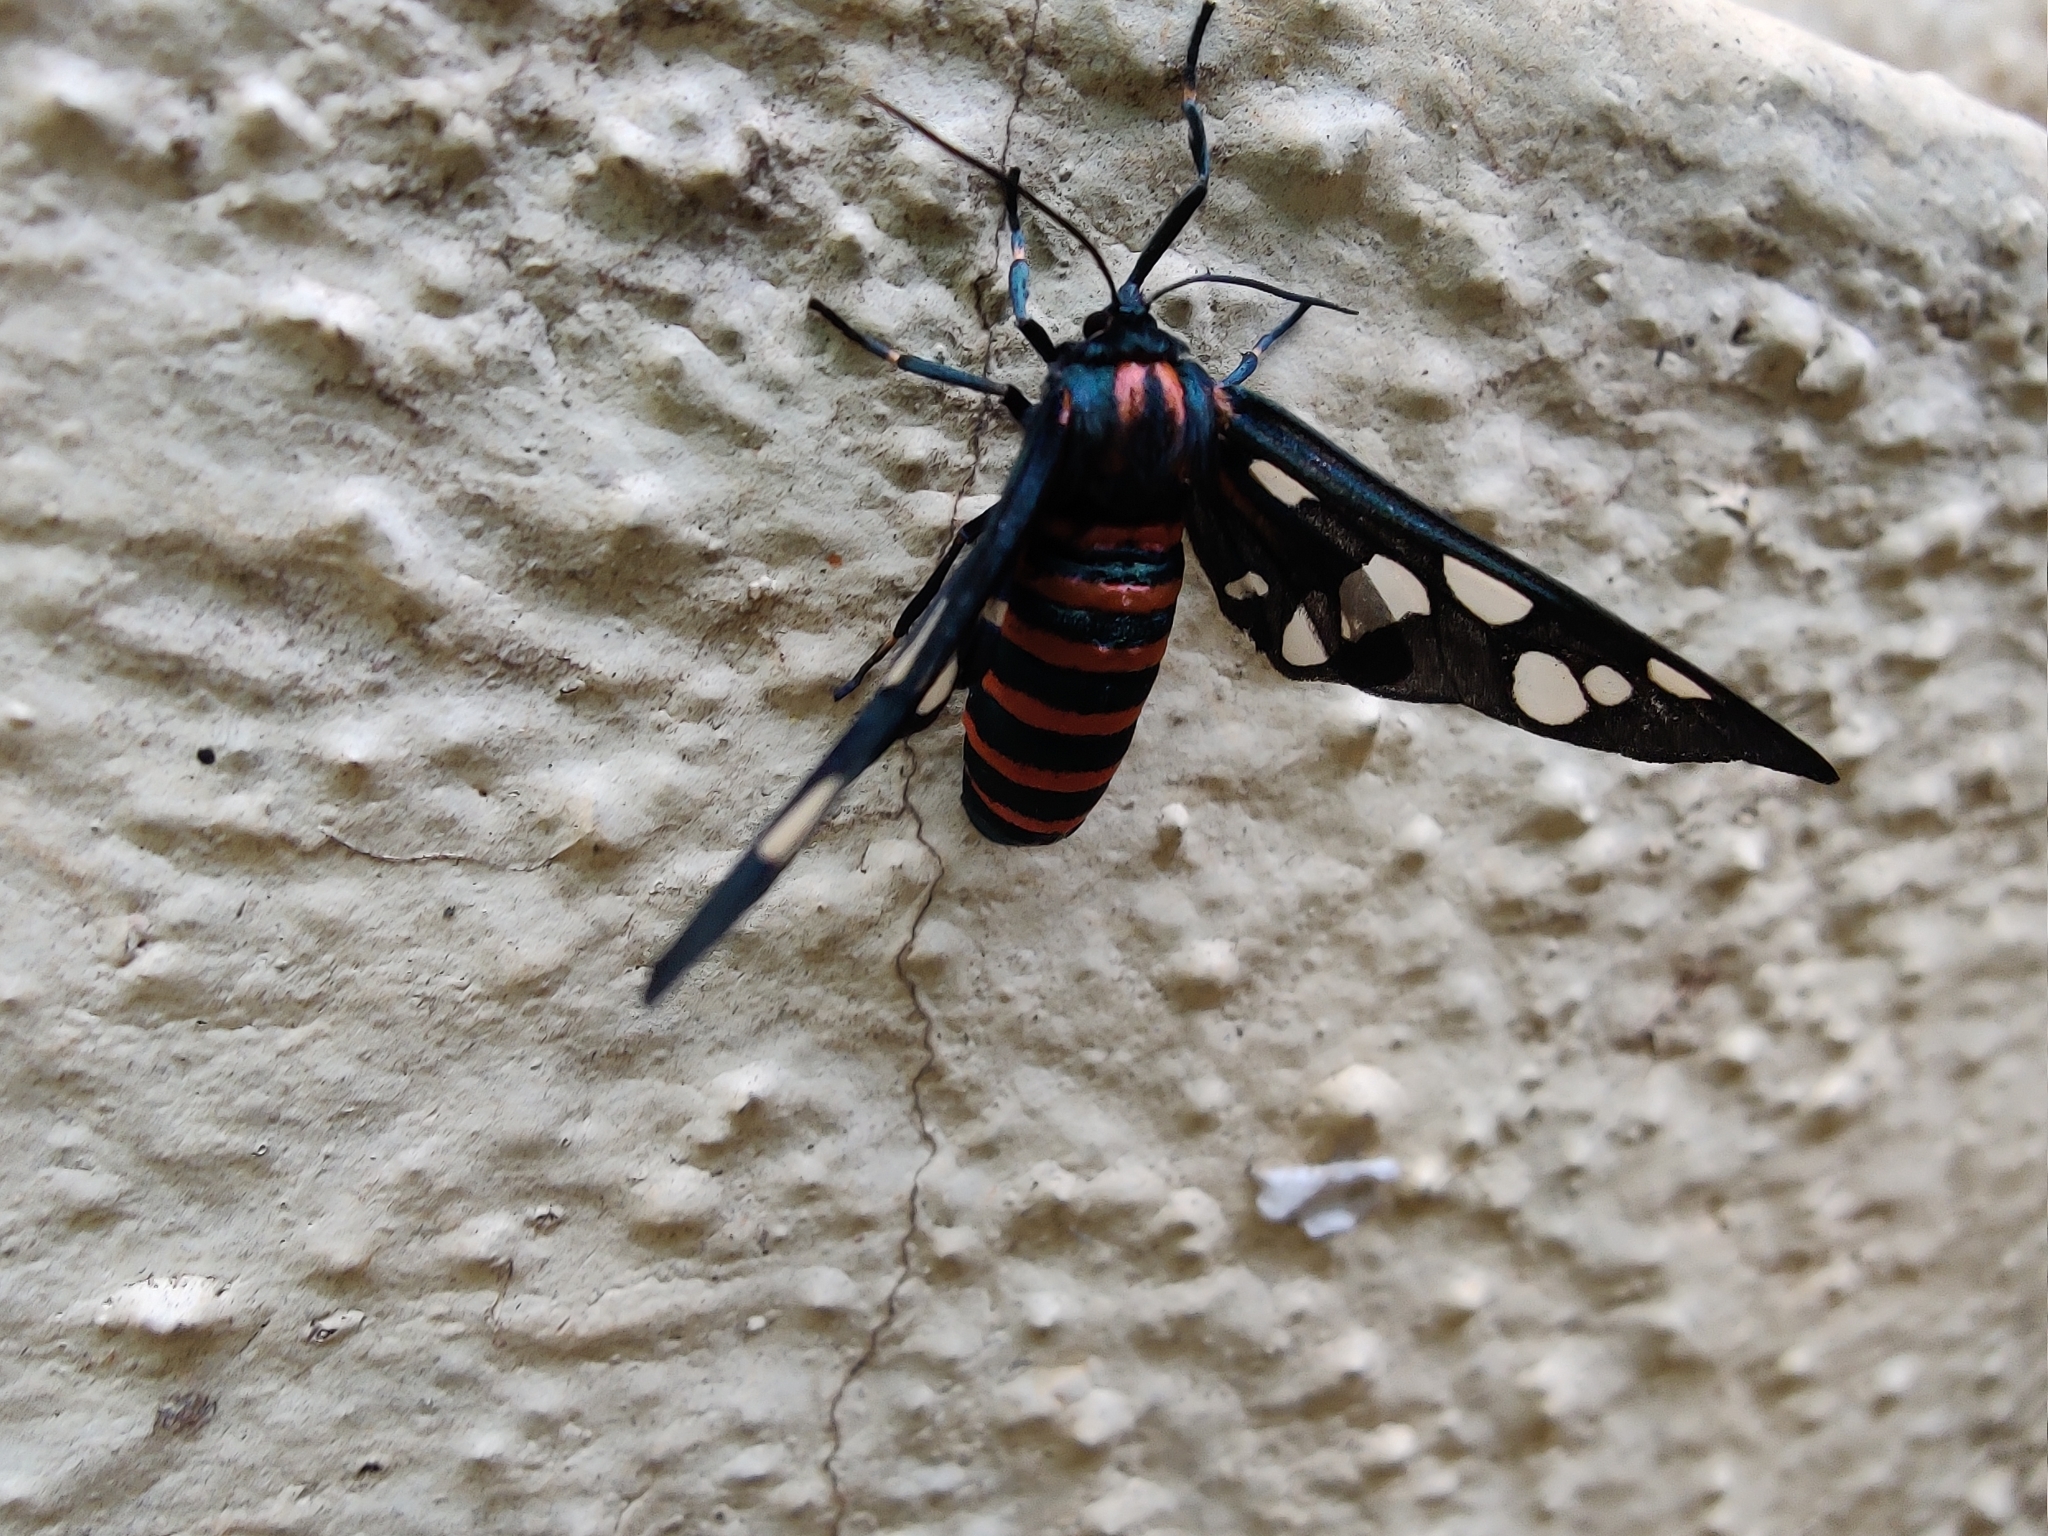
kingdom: Animalia
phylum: Arthropoda
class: Insecta
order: Lepidoptera
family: Erebidae
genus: Amata
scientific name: Amata passalis
